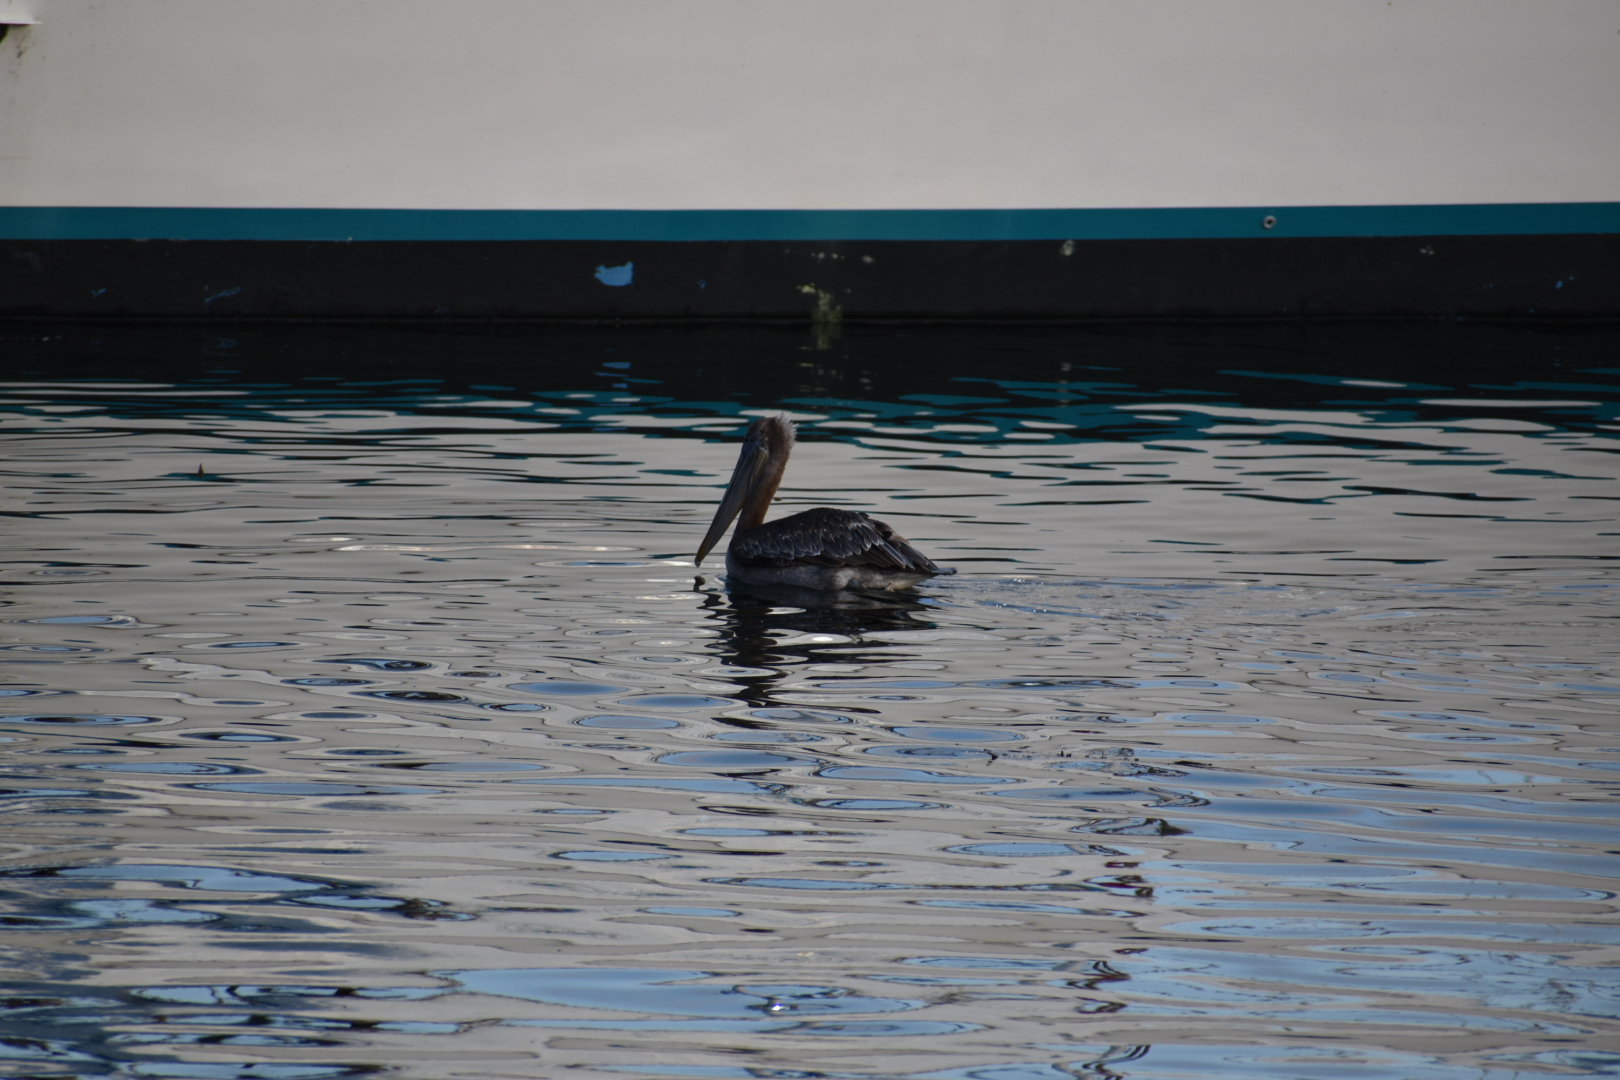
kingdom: Animalia
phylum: Chordata
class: Aves
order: Pelecaniformes
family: Pelecanidae
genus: Pelecanus
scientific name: Pelecanus occidentalis
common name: Brown pelican
